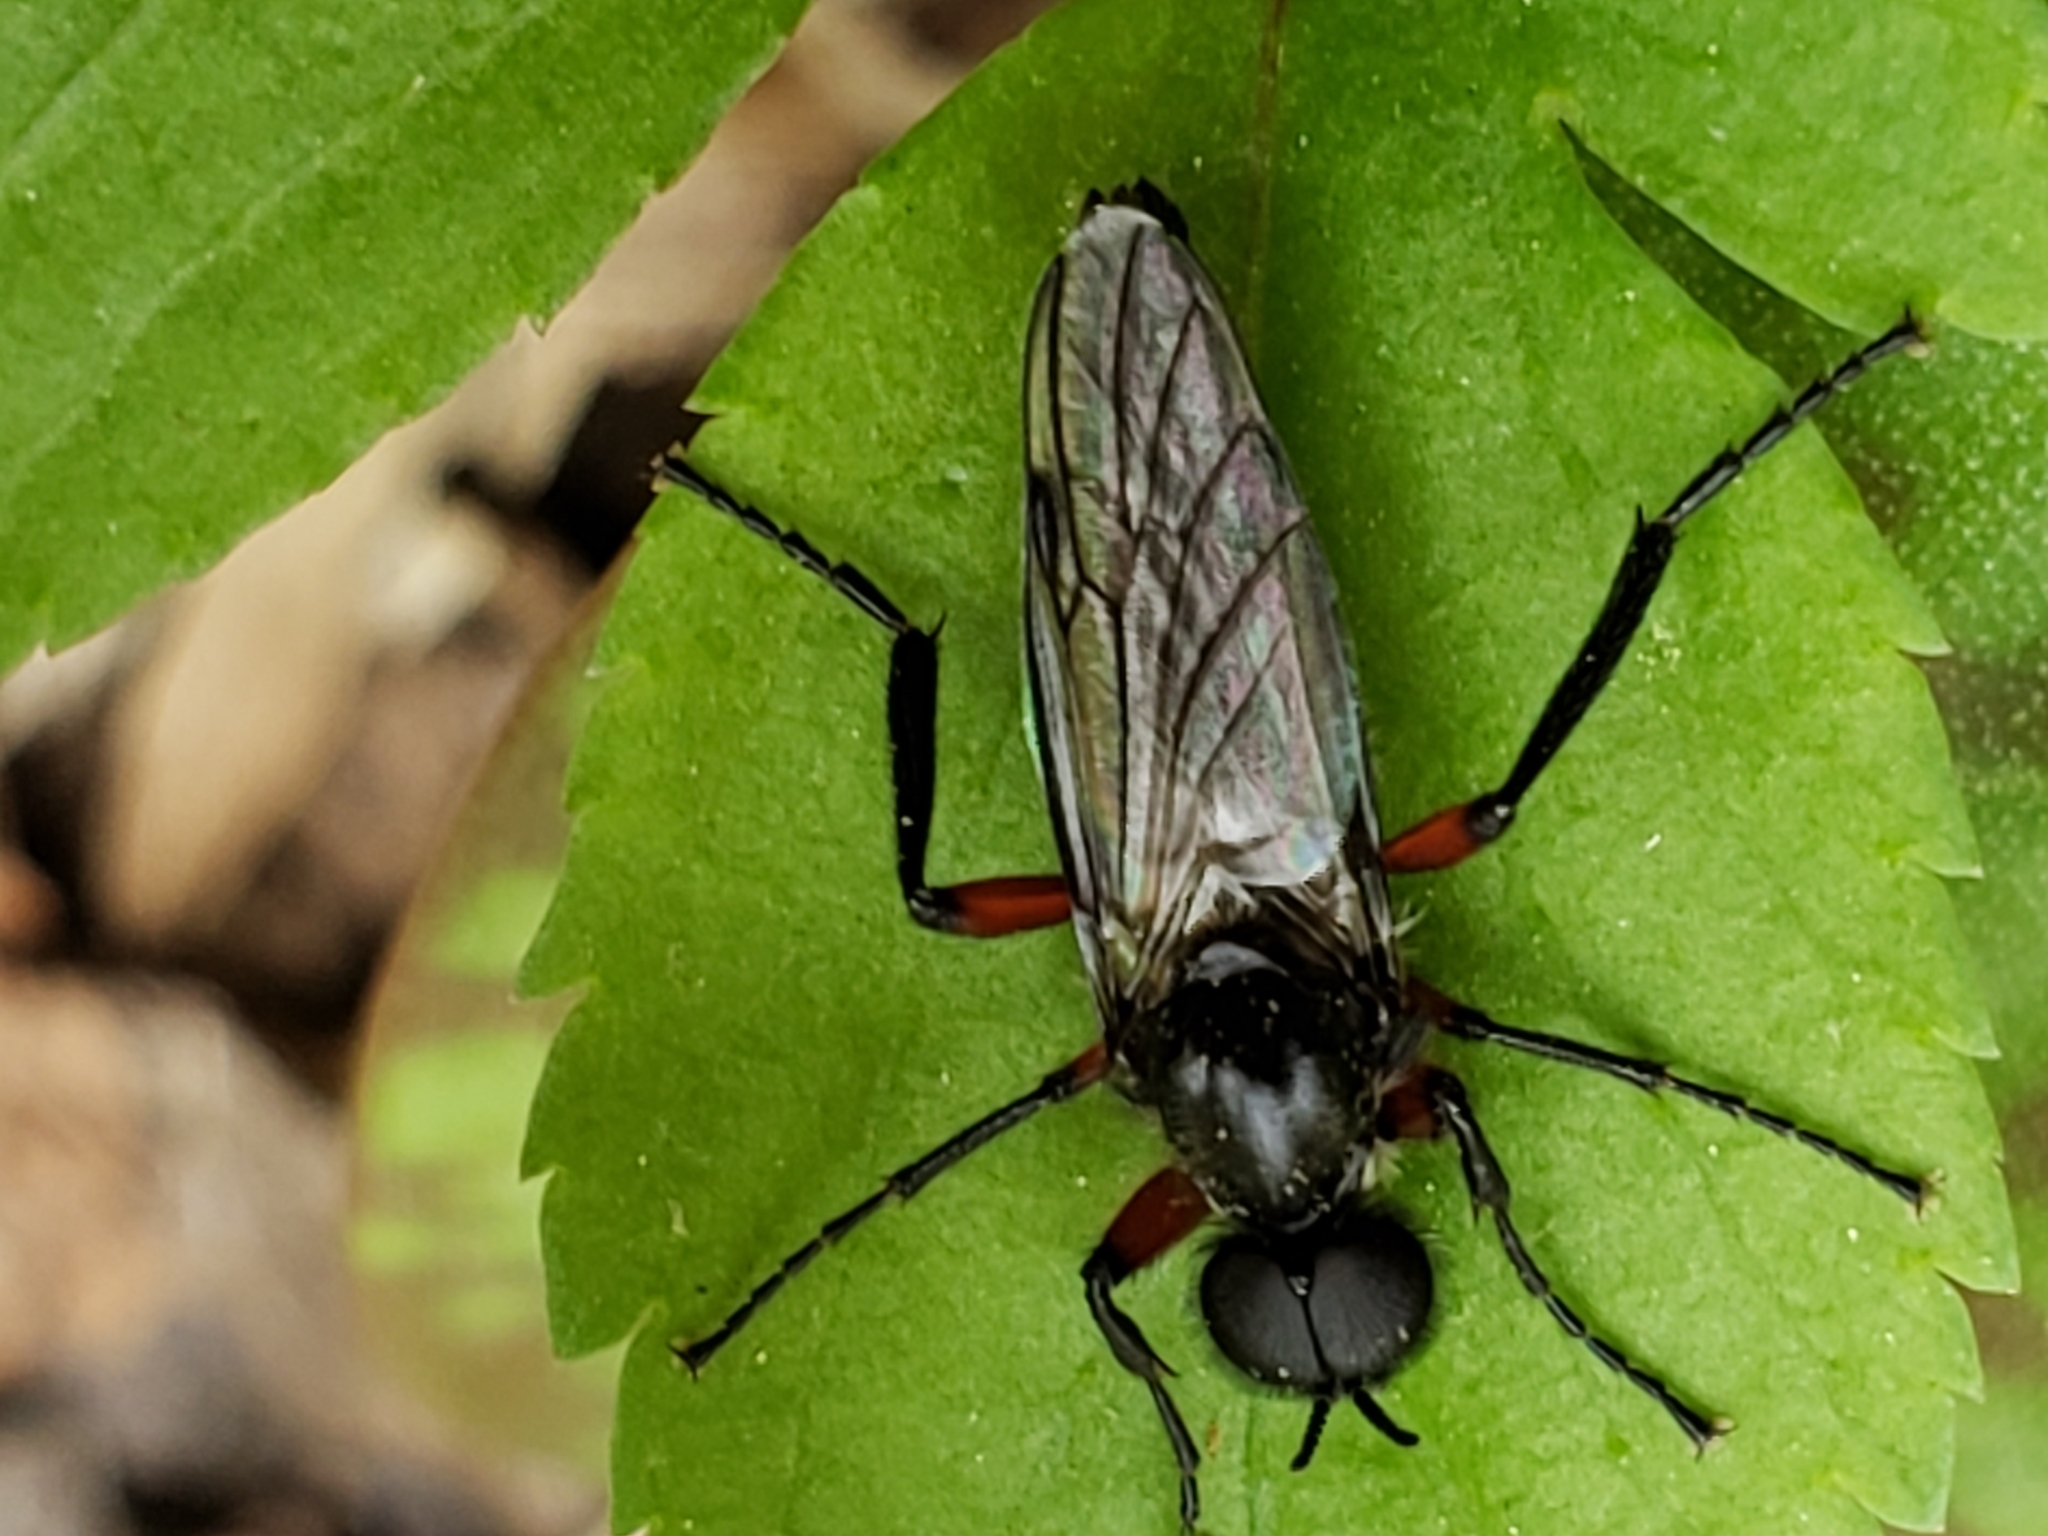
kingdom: Animalia
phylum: Arthropoda
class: Insecta
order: Diptera
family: Bibionidae
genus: Bibio
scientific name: Bibio femoratus
